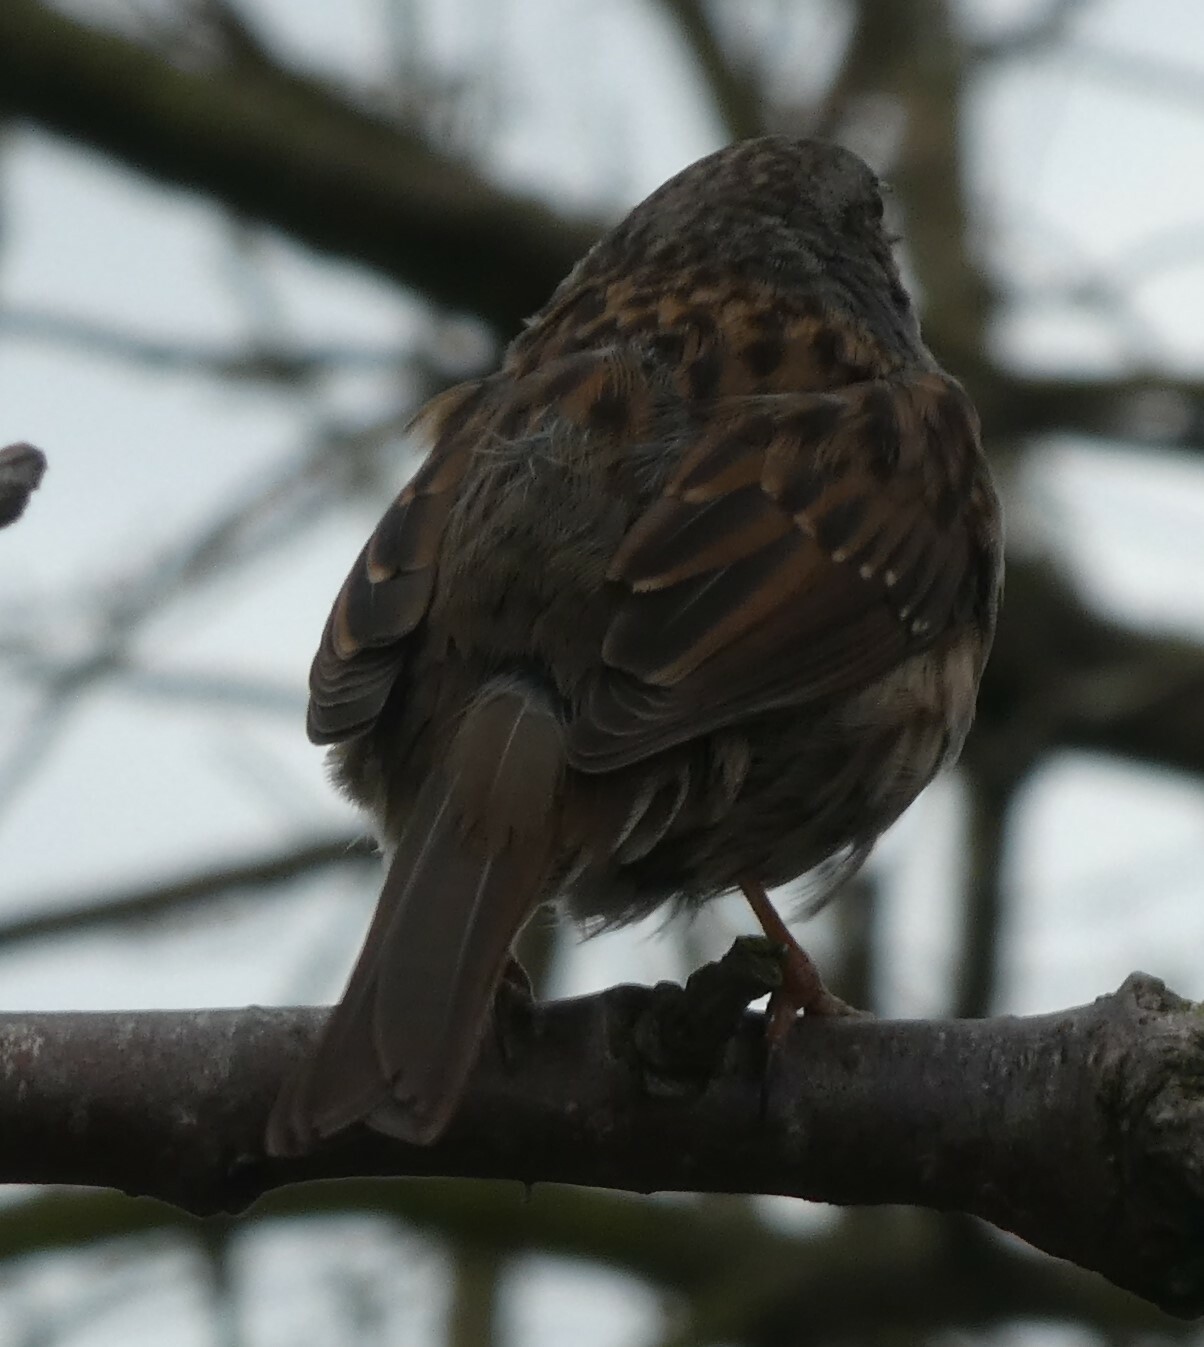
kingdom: Animalia
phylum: Chordata
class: Aves
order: Passeriformes
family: Prunellidae
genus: Prunella
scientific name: Prunella modularis
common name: Dunnock
